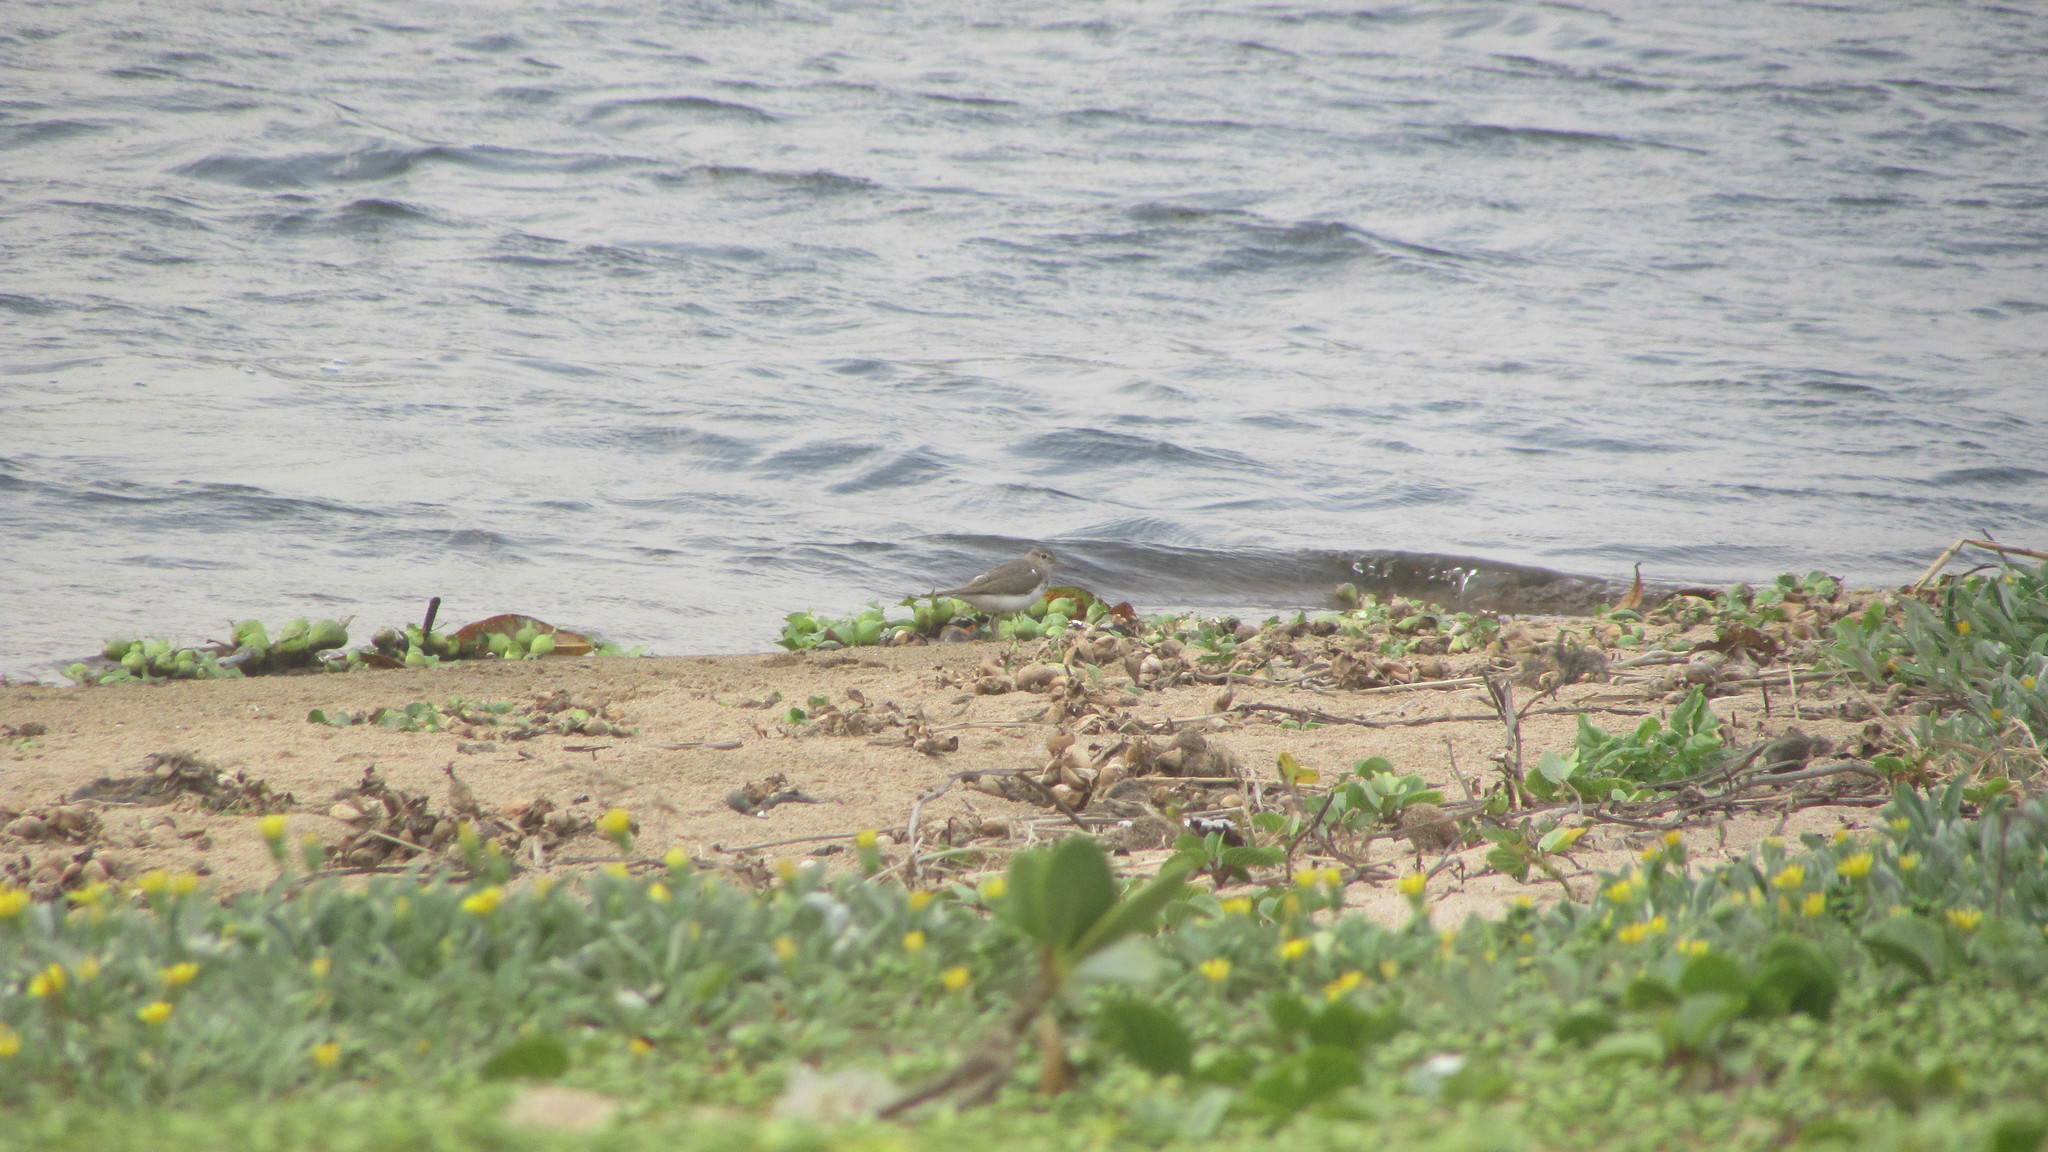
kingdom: Animalia
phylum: Chordata
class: Aves
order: Charadriiformes
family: Scolopacidae
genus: Actitis
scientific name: Actitis hypoleucos
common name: Common sandpiper
